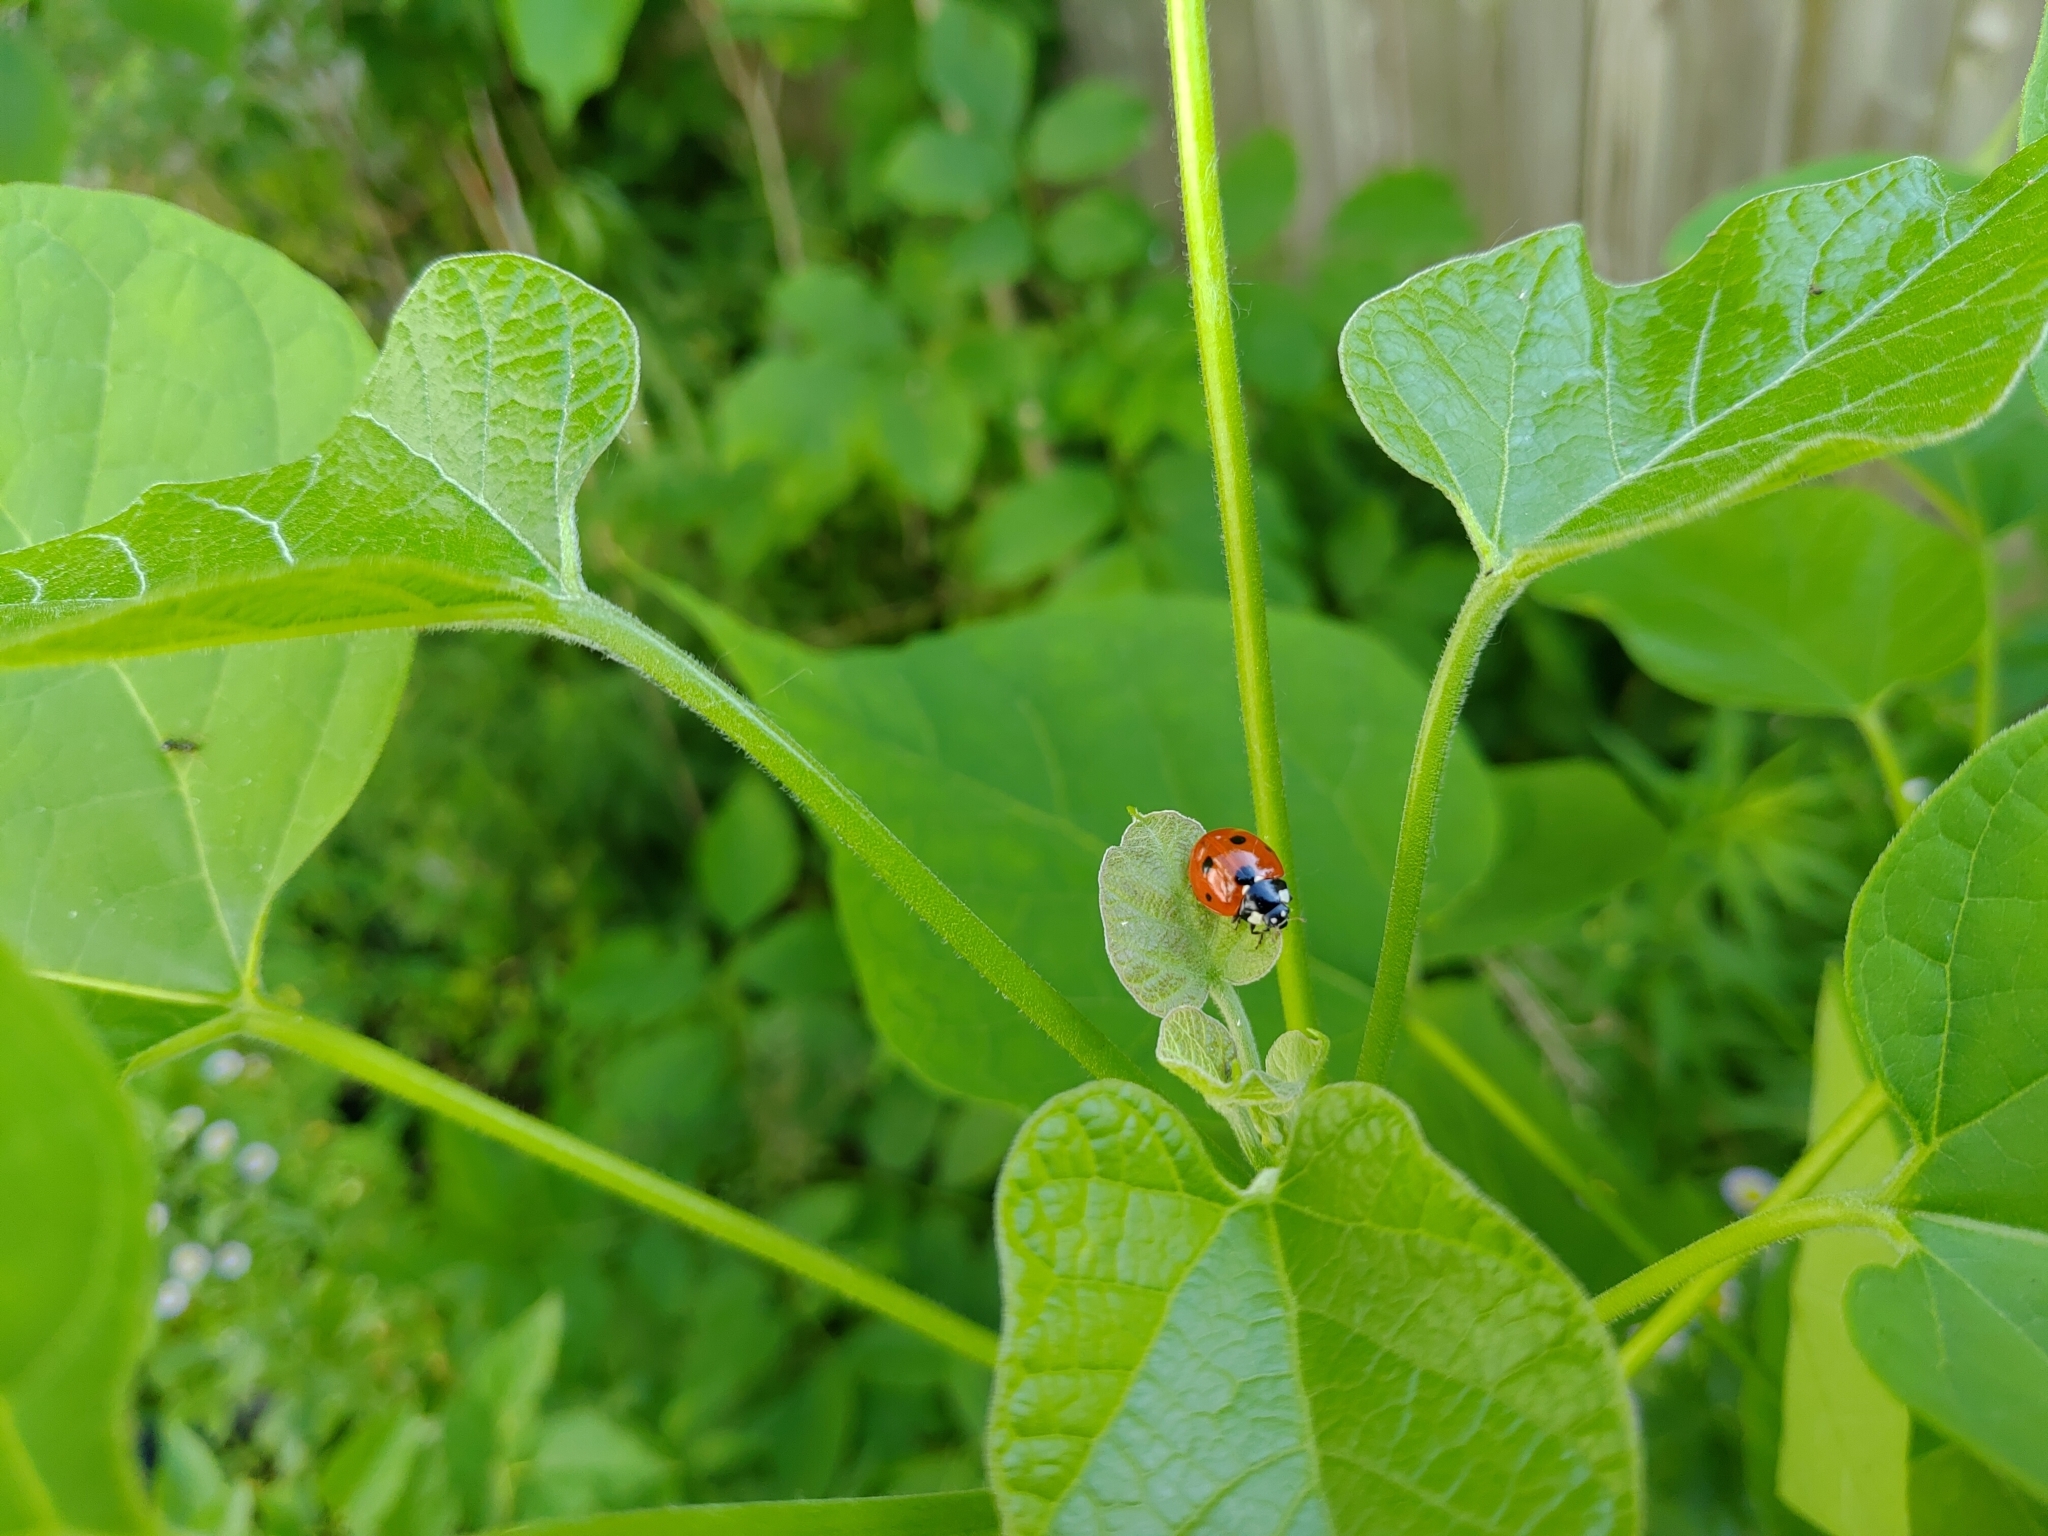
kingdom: Animalia
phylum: Arthropoda
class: Insecta
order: Coleoptera
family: Coccinellidae
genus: Coccinella
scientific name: Coccinella septempunctata
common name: Sevenspotted lady beetle
